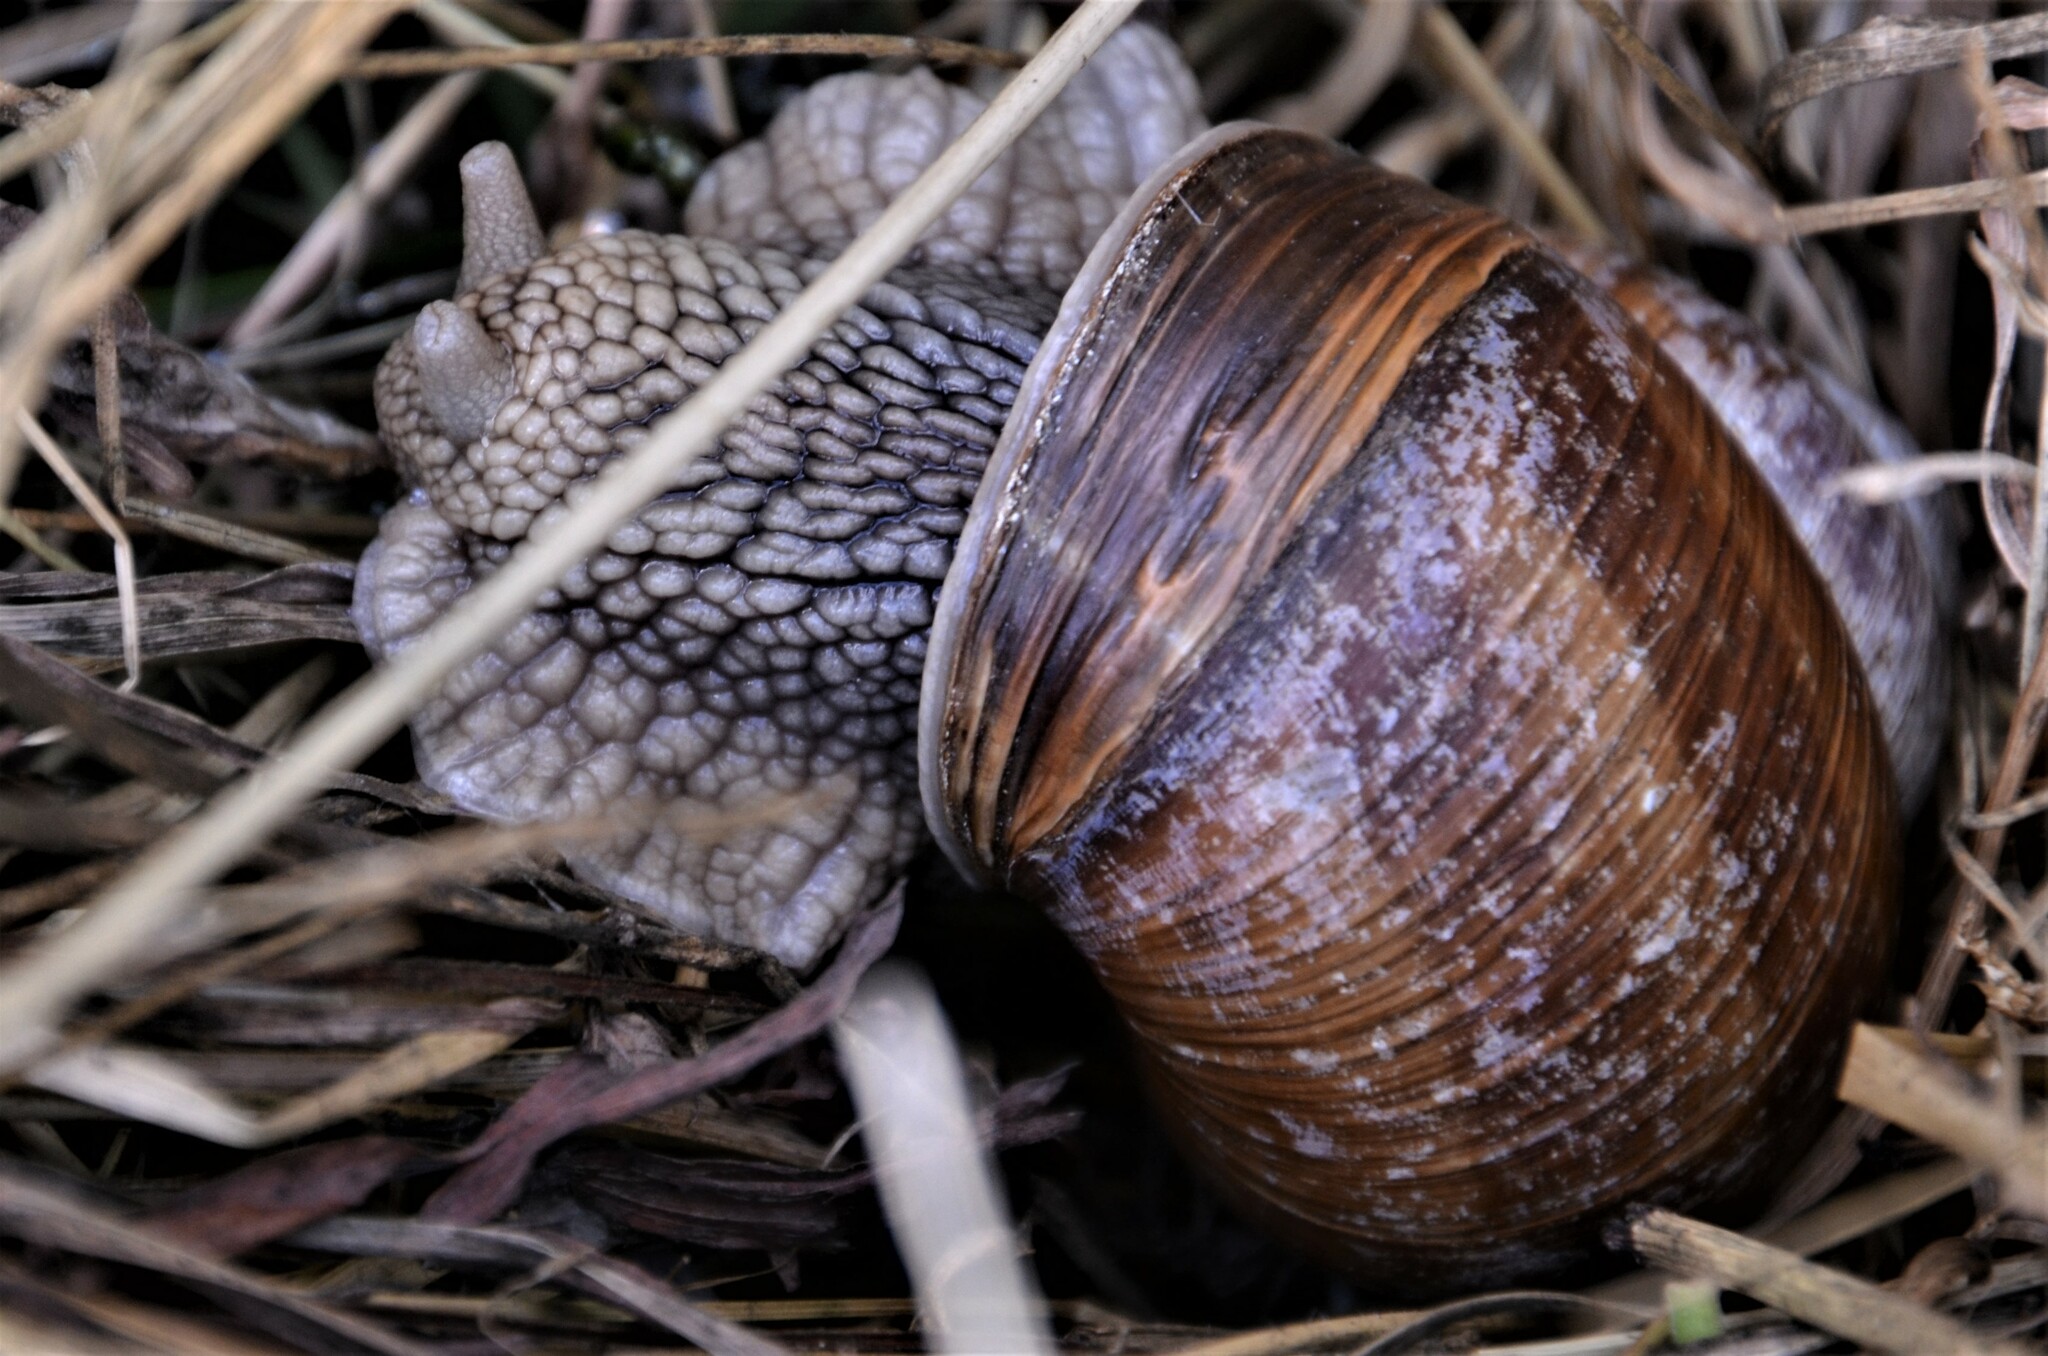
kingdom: Animalia
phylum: Mollusca
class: Gastropoda
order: Stylommatophora
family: Helicidae
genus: Helix
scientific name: Helix pomatia
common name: Roman snail
